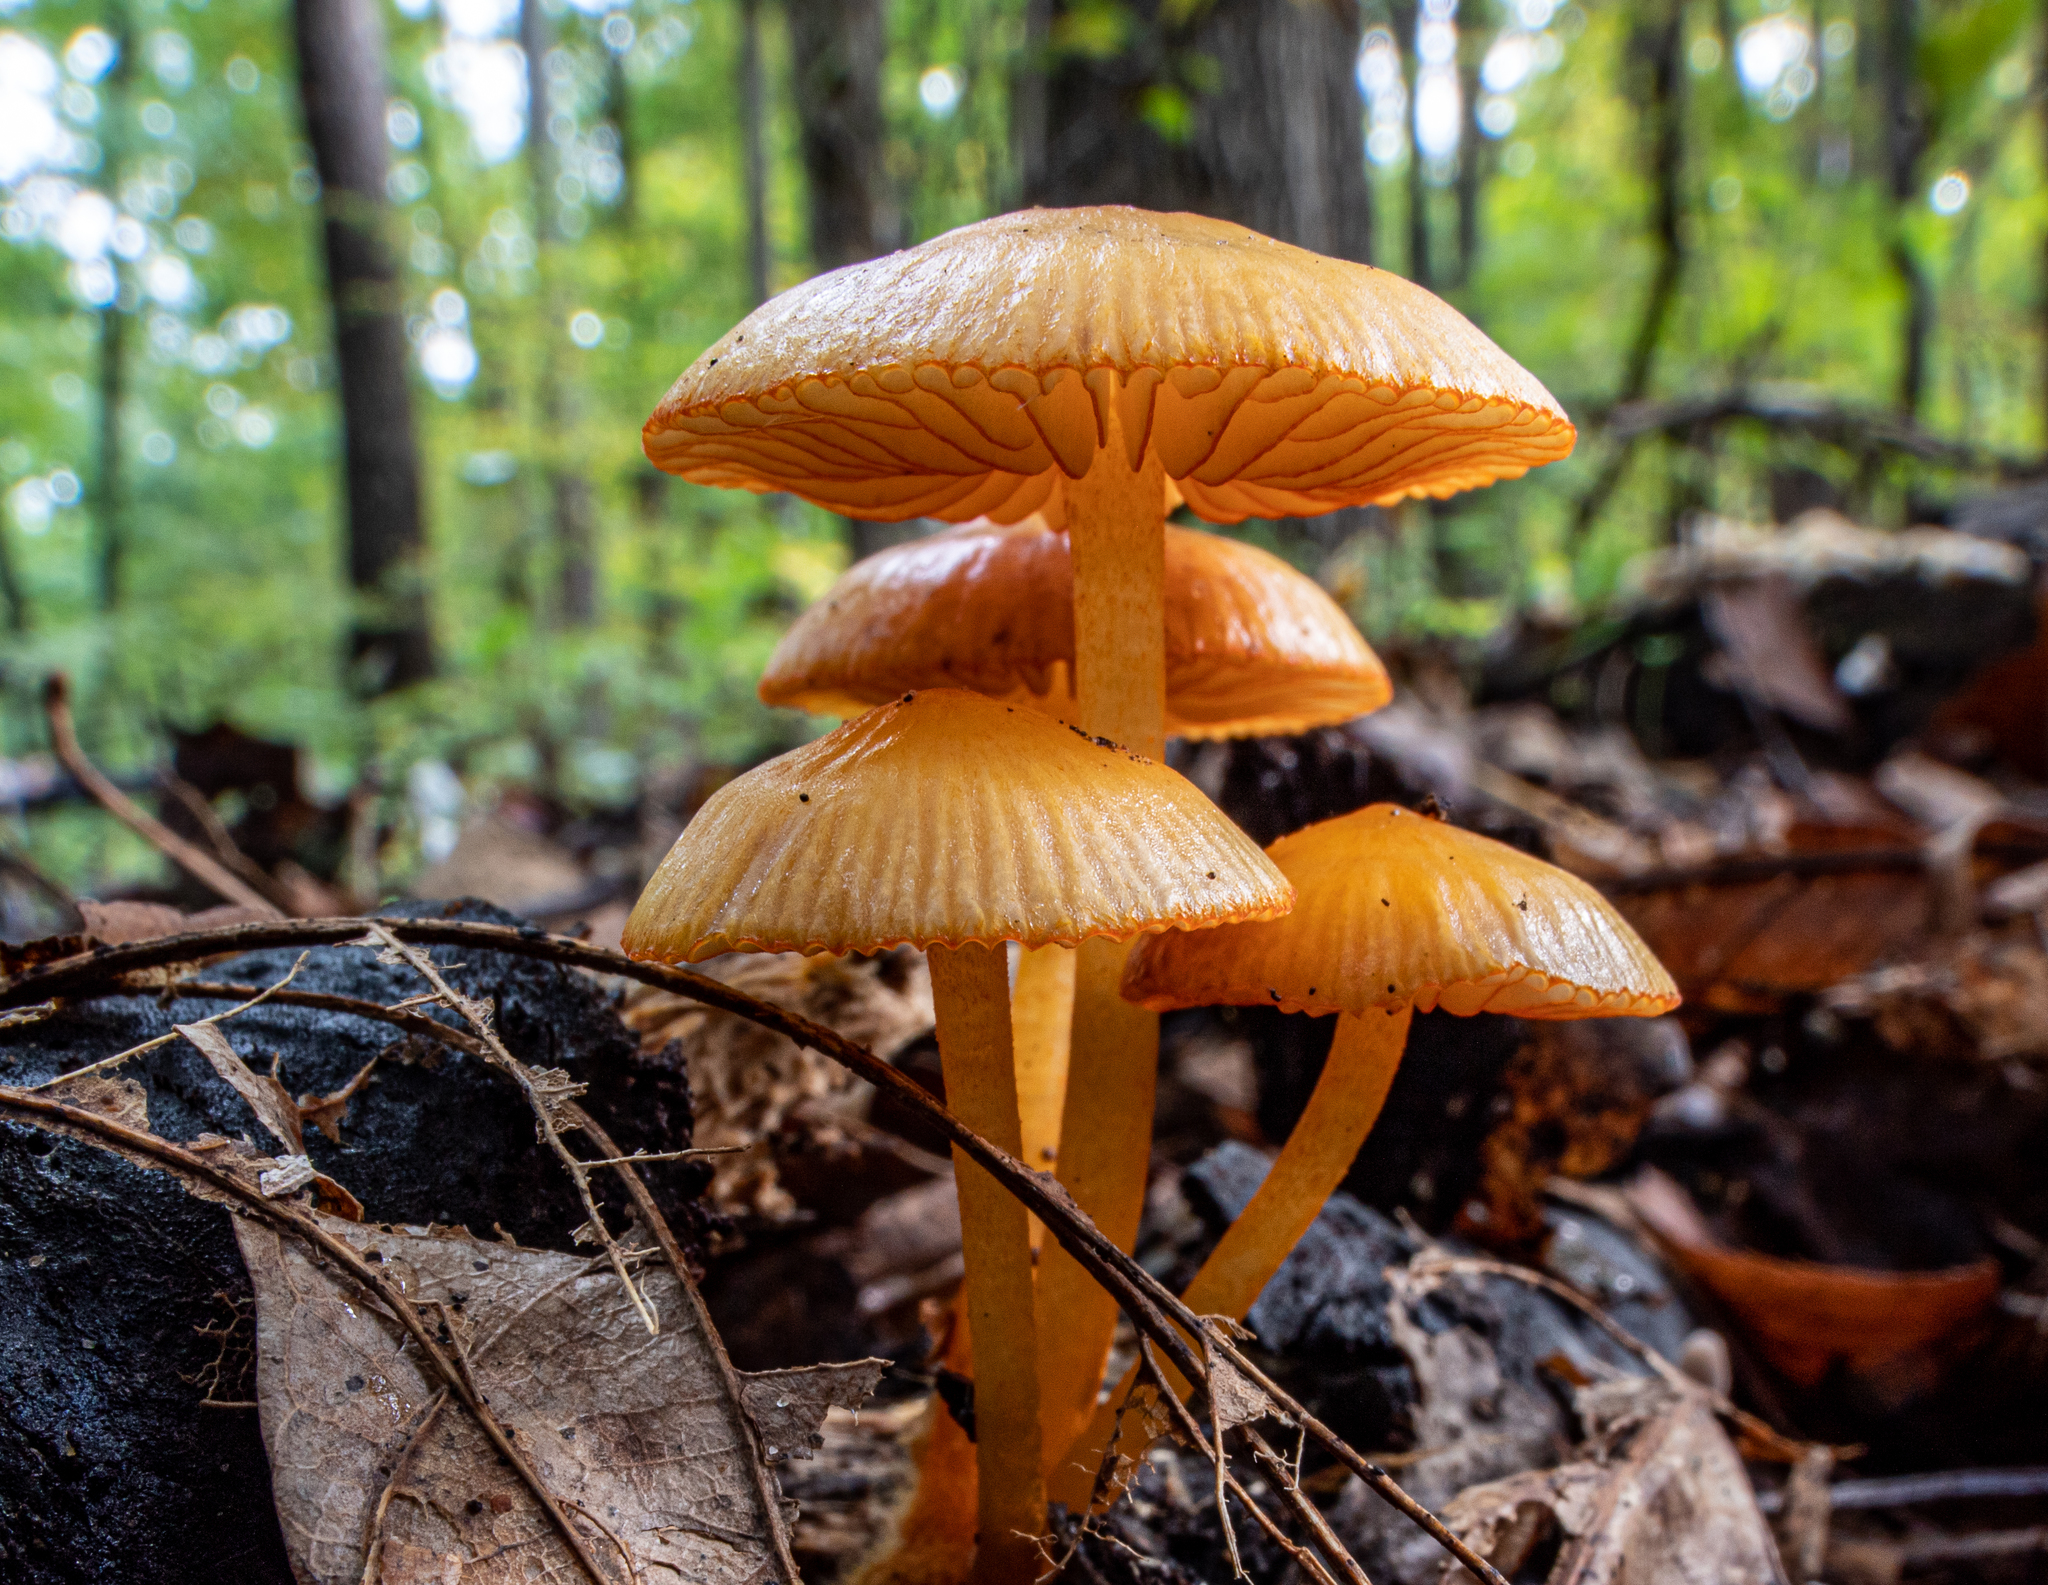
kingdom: Fungi
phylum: Basidiomycota
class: Agaricomycetes
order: Agaricales
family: Mycenaceae
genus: Mycena
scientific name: Mycena leaiana
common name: Orange mycena
